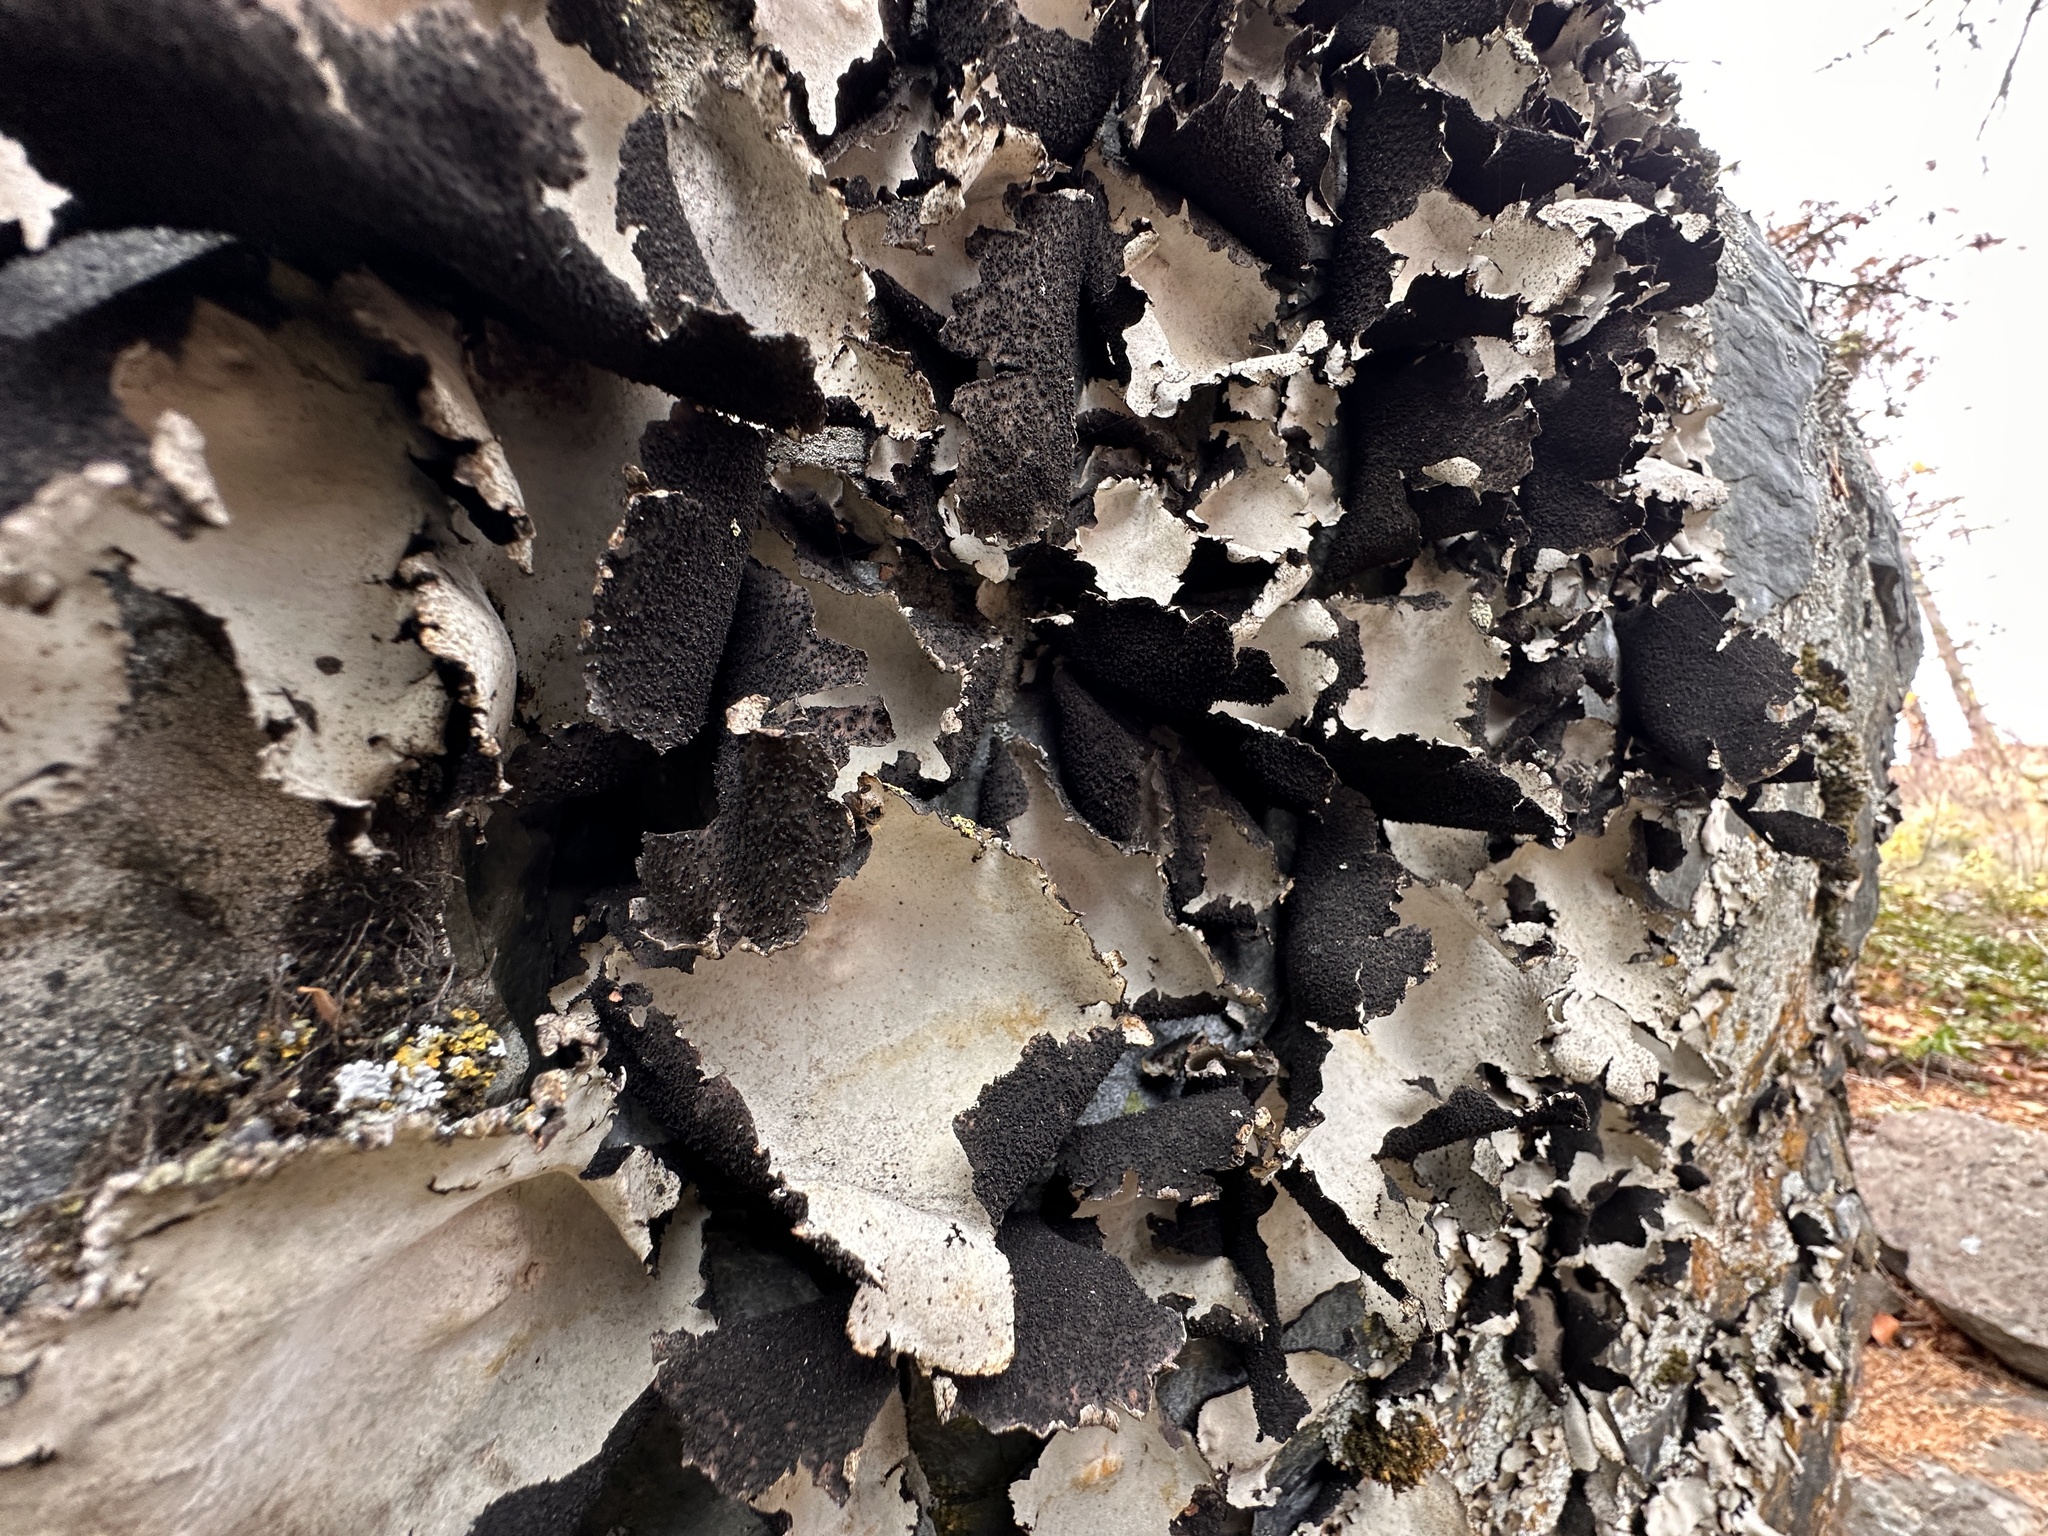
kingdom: Fungi
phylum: Ascomycota
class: Lecanoromycetes
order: Umbilicariales
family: Umbilicariaceae
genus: Umbilicaria
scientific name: Umbilicaria americana
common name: Frosted rock tripe
